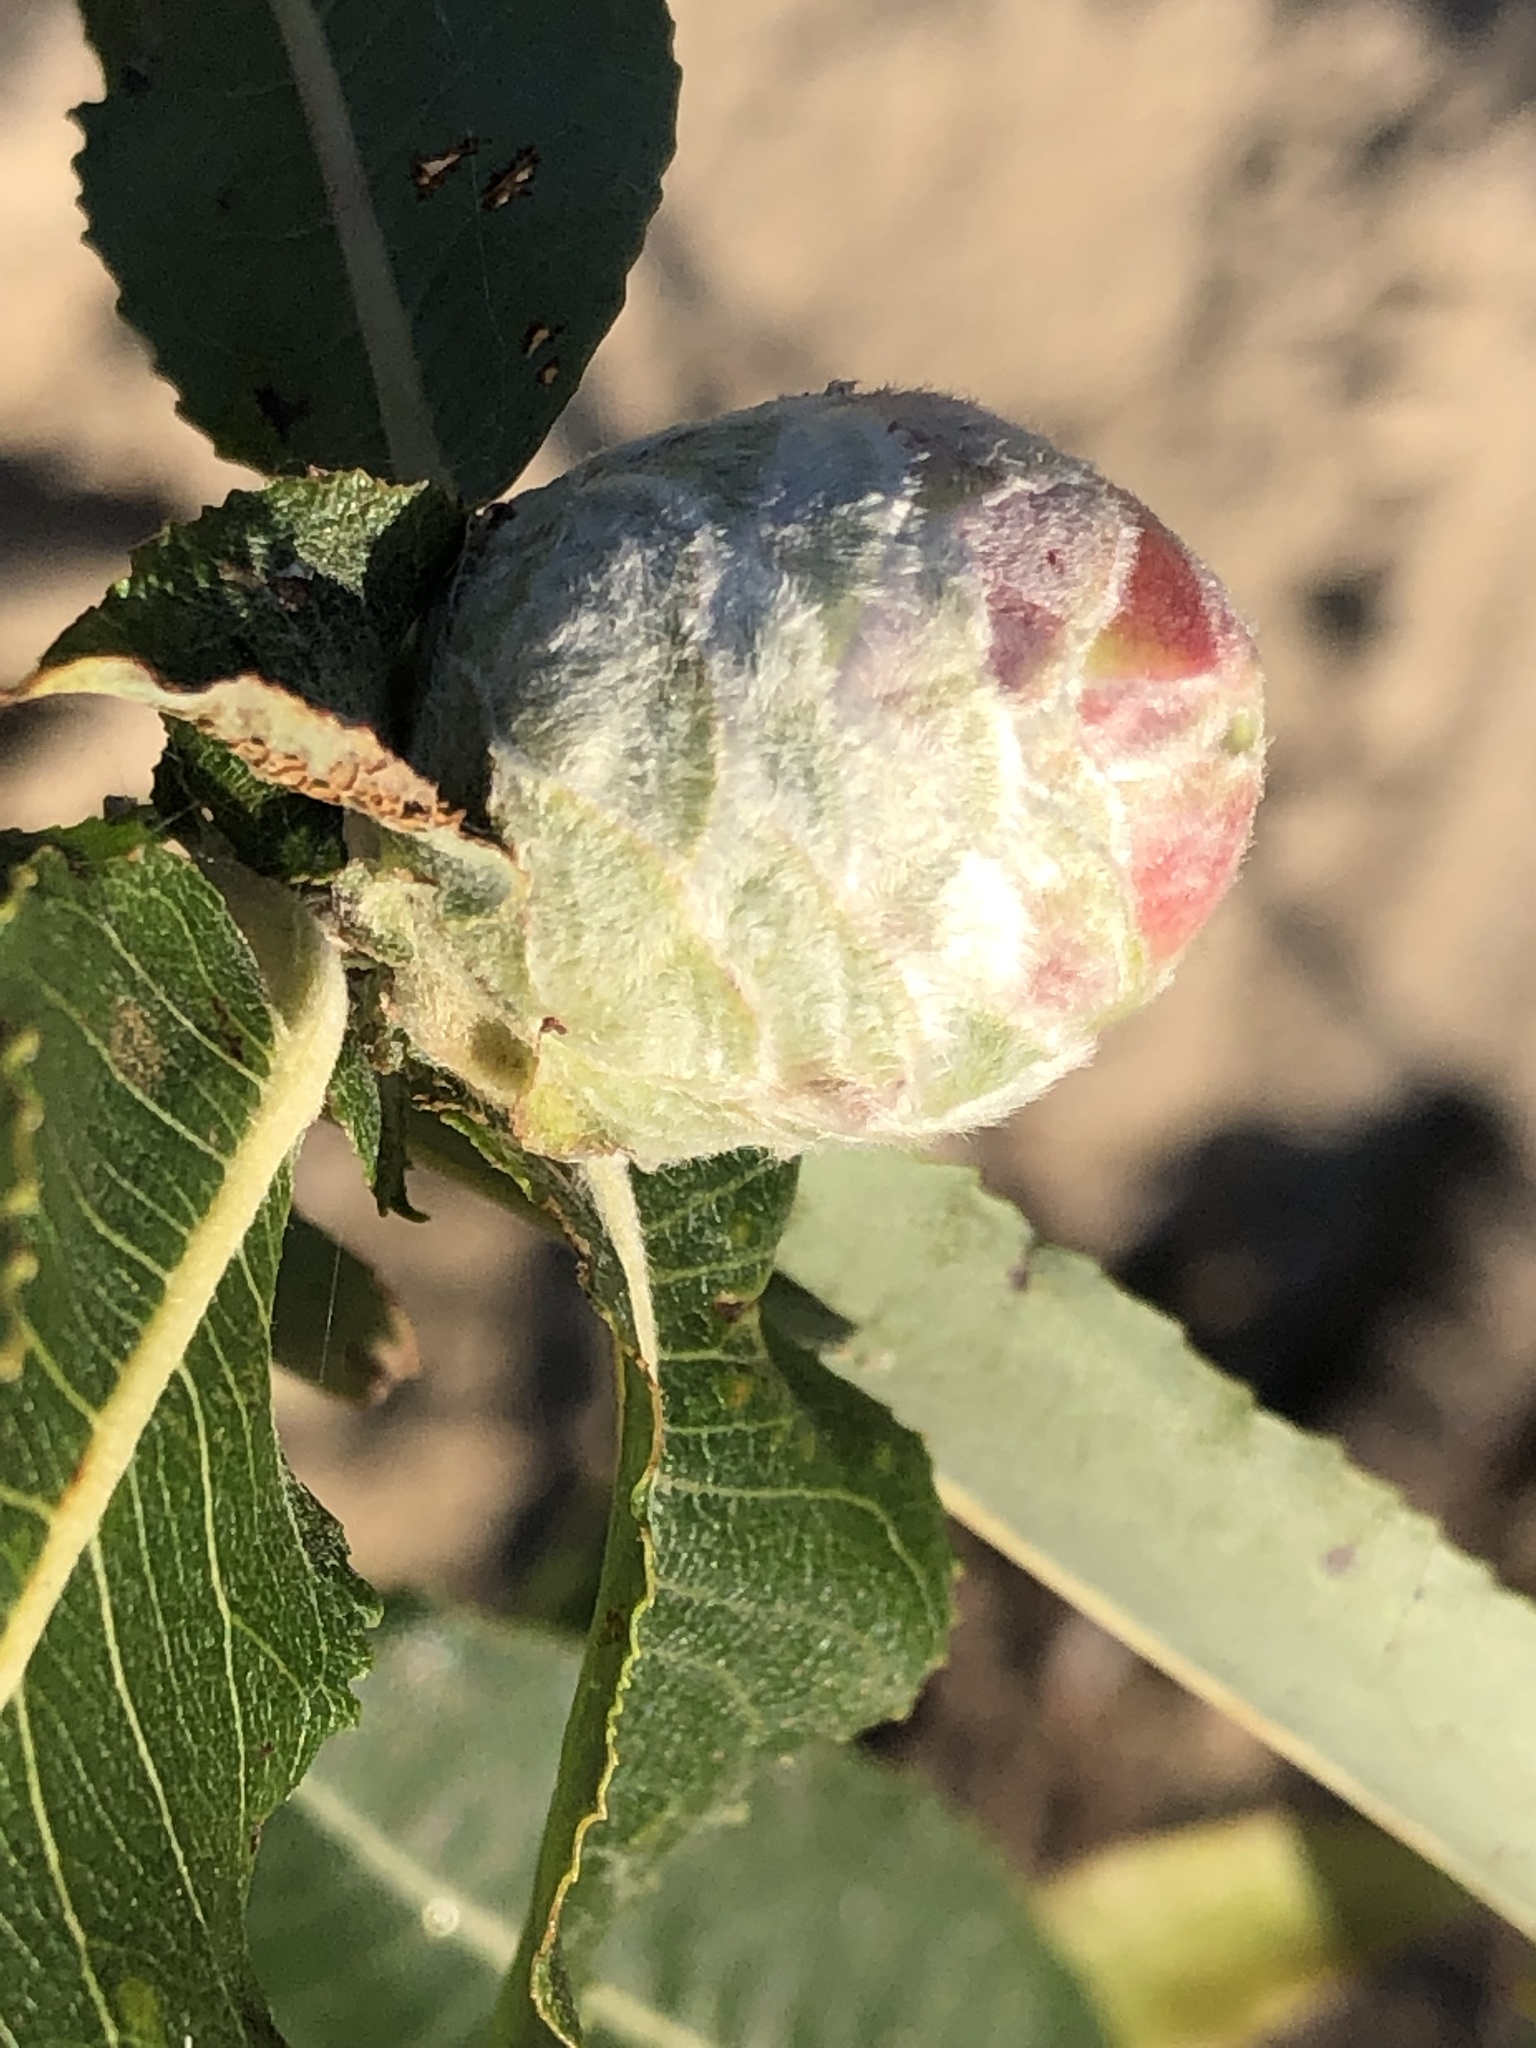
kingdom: Animalia
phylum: Arthropoda
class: Insecta
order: Diptera
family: Cecidomyiidae
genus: Rabdophaga
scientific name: Rabdophaga strobiloides
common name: Willow pinecone gall midge
